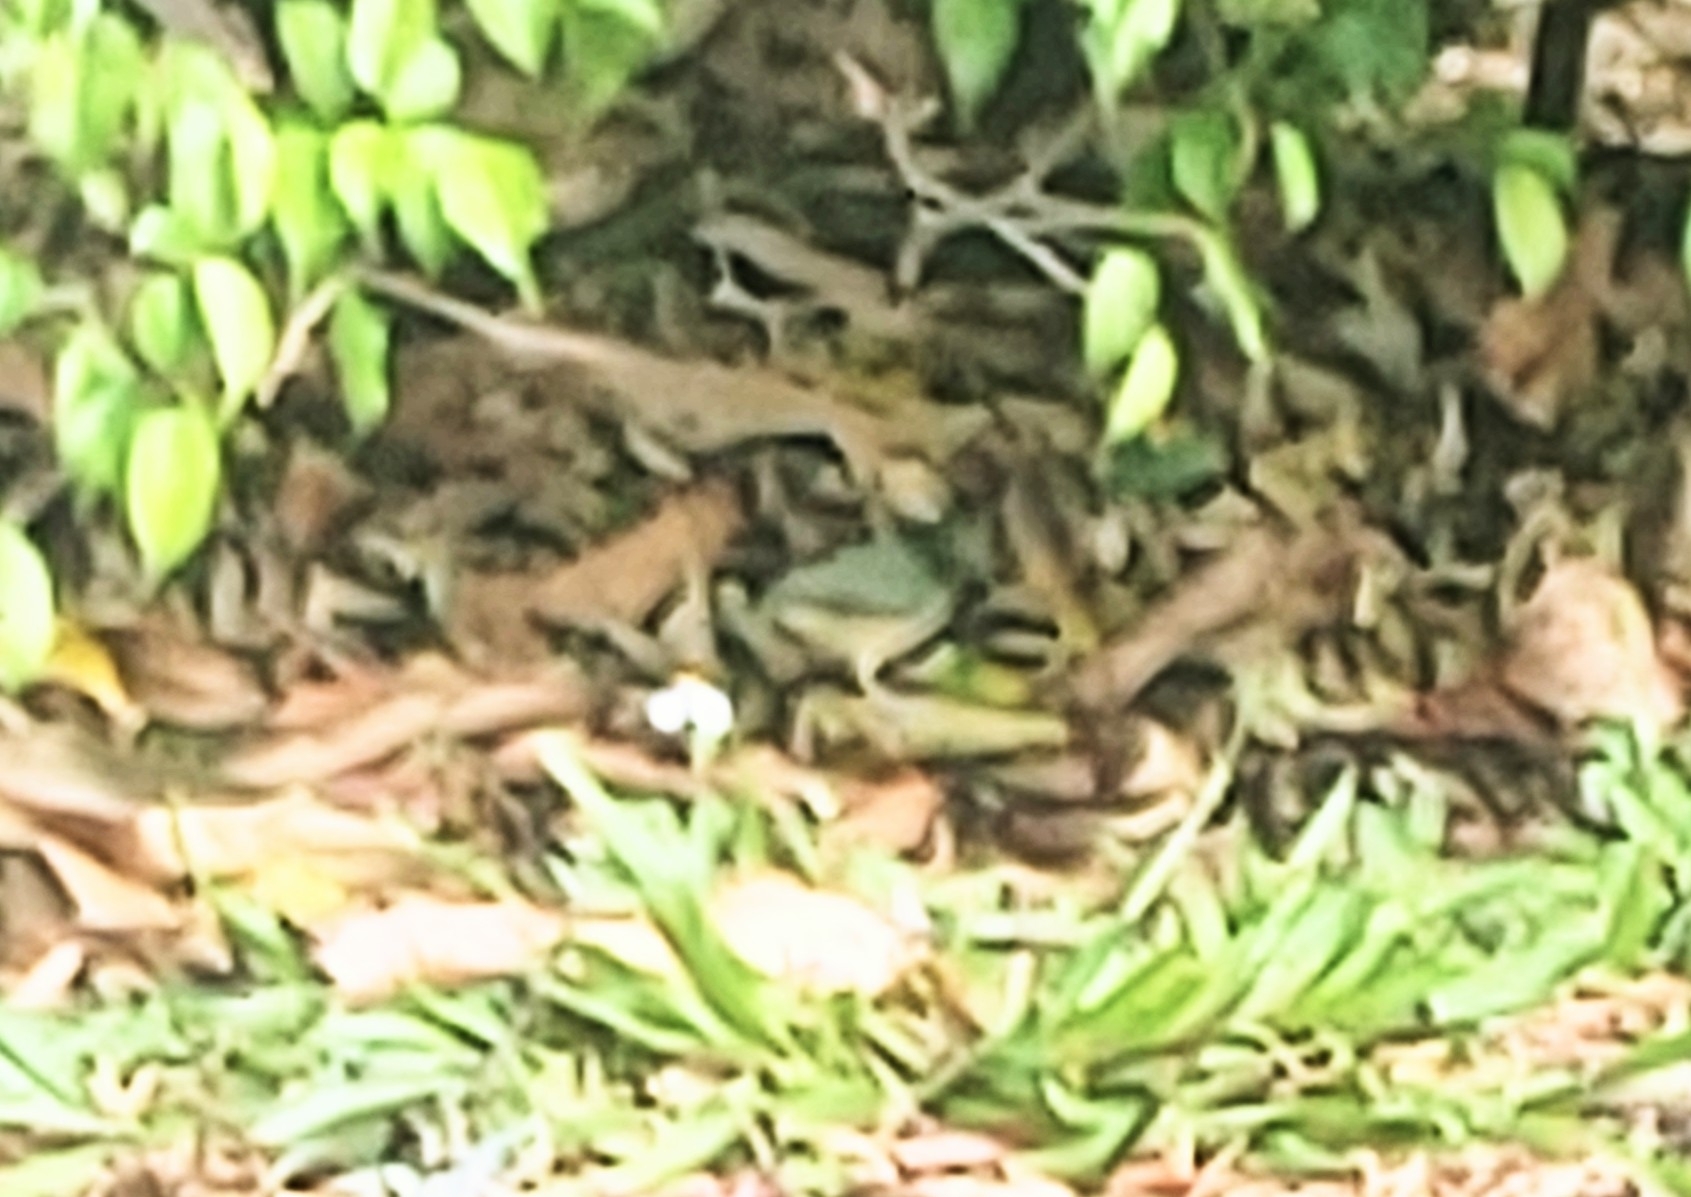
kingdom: Animalia
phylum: Chordata
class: Aves
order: Passeriformes
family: Cardinalidae
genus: Passerina
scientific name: Passerina ciris
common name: Painted bunting
